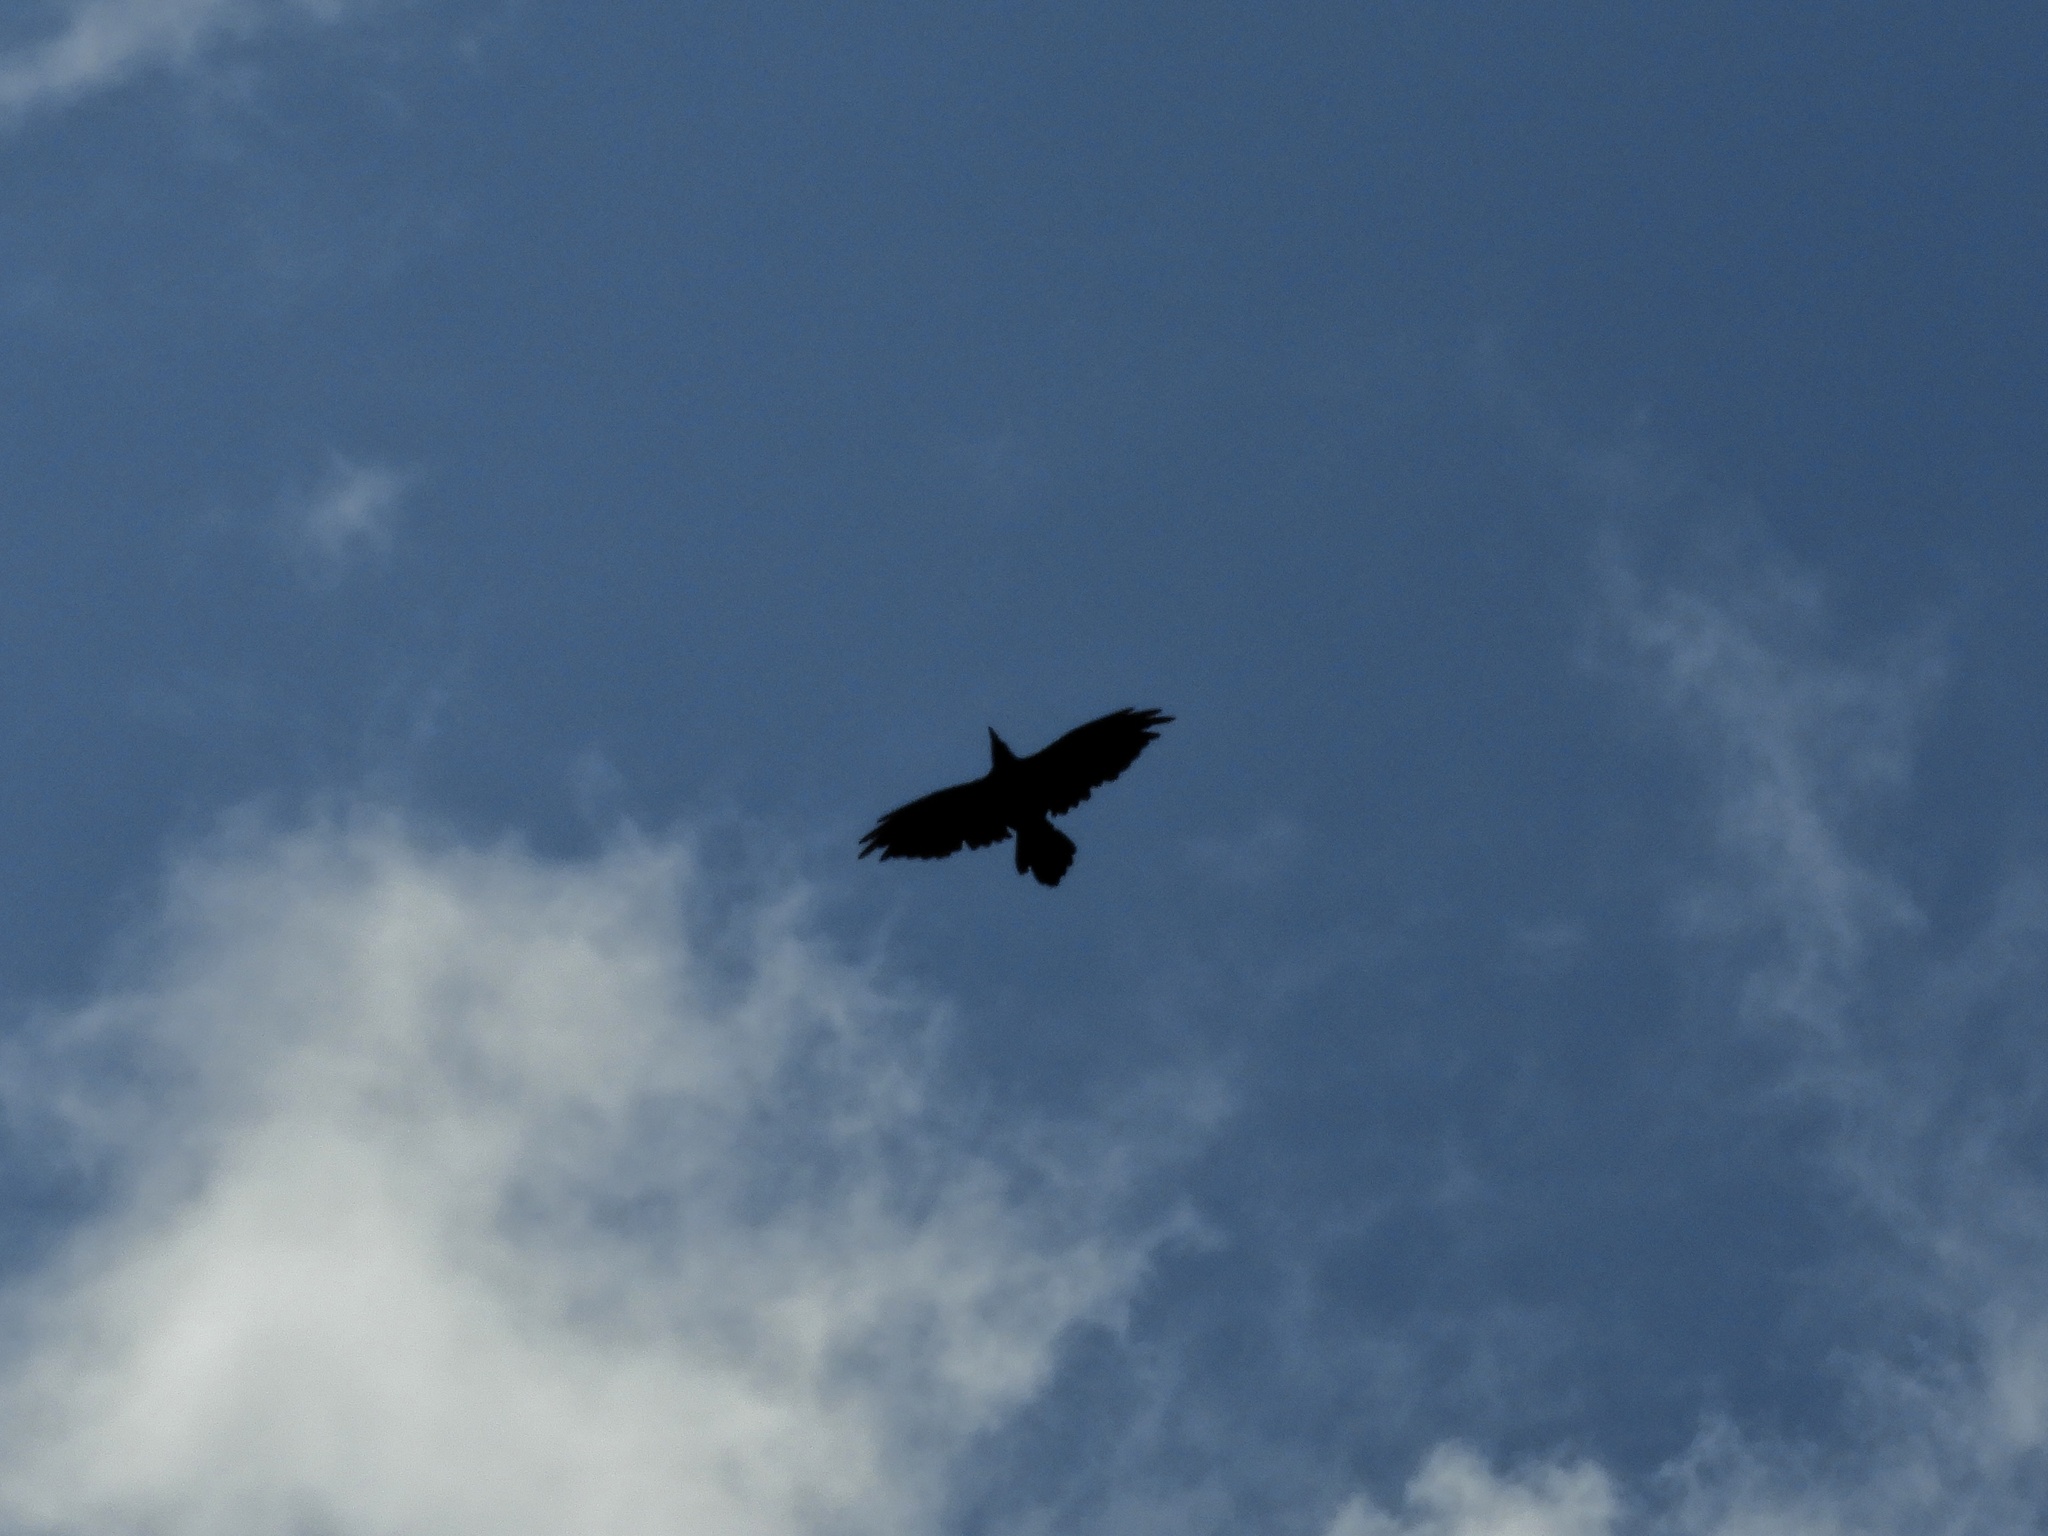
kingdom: Animalia
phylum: Chordata
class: Aves
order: Passeriformes
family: Corvidae
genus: Corvus
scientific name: Corvus corax
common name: Common raven
